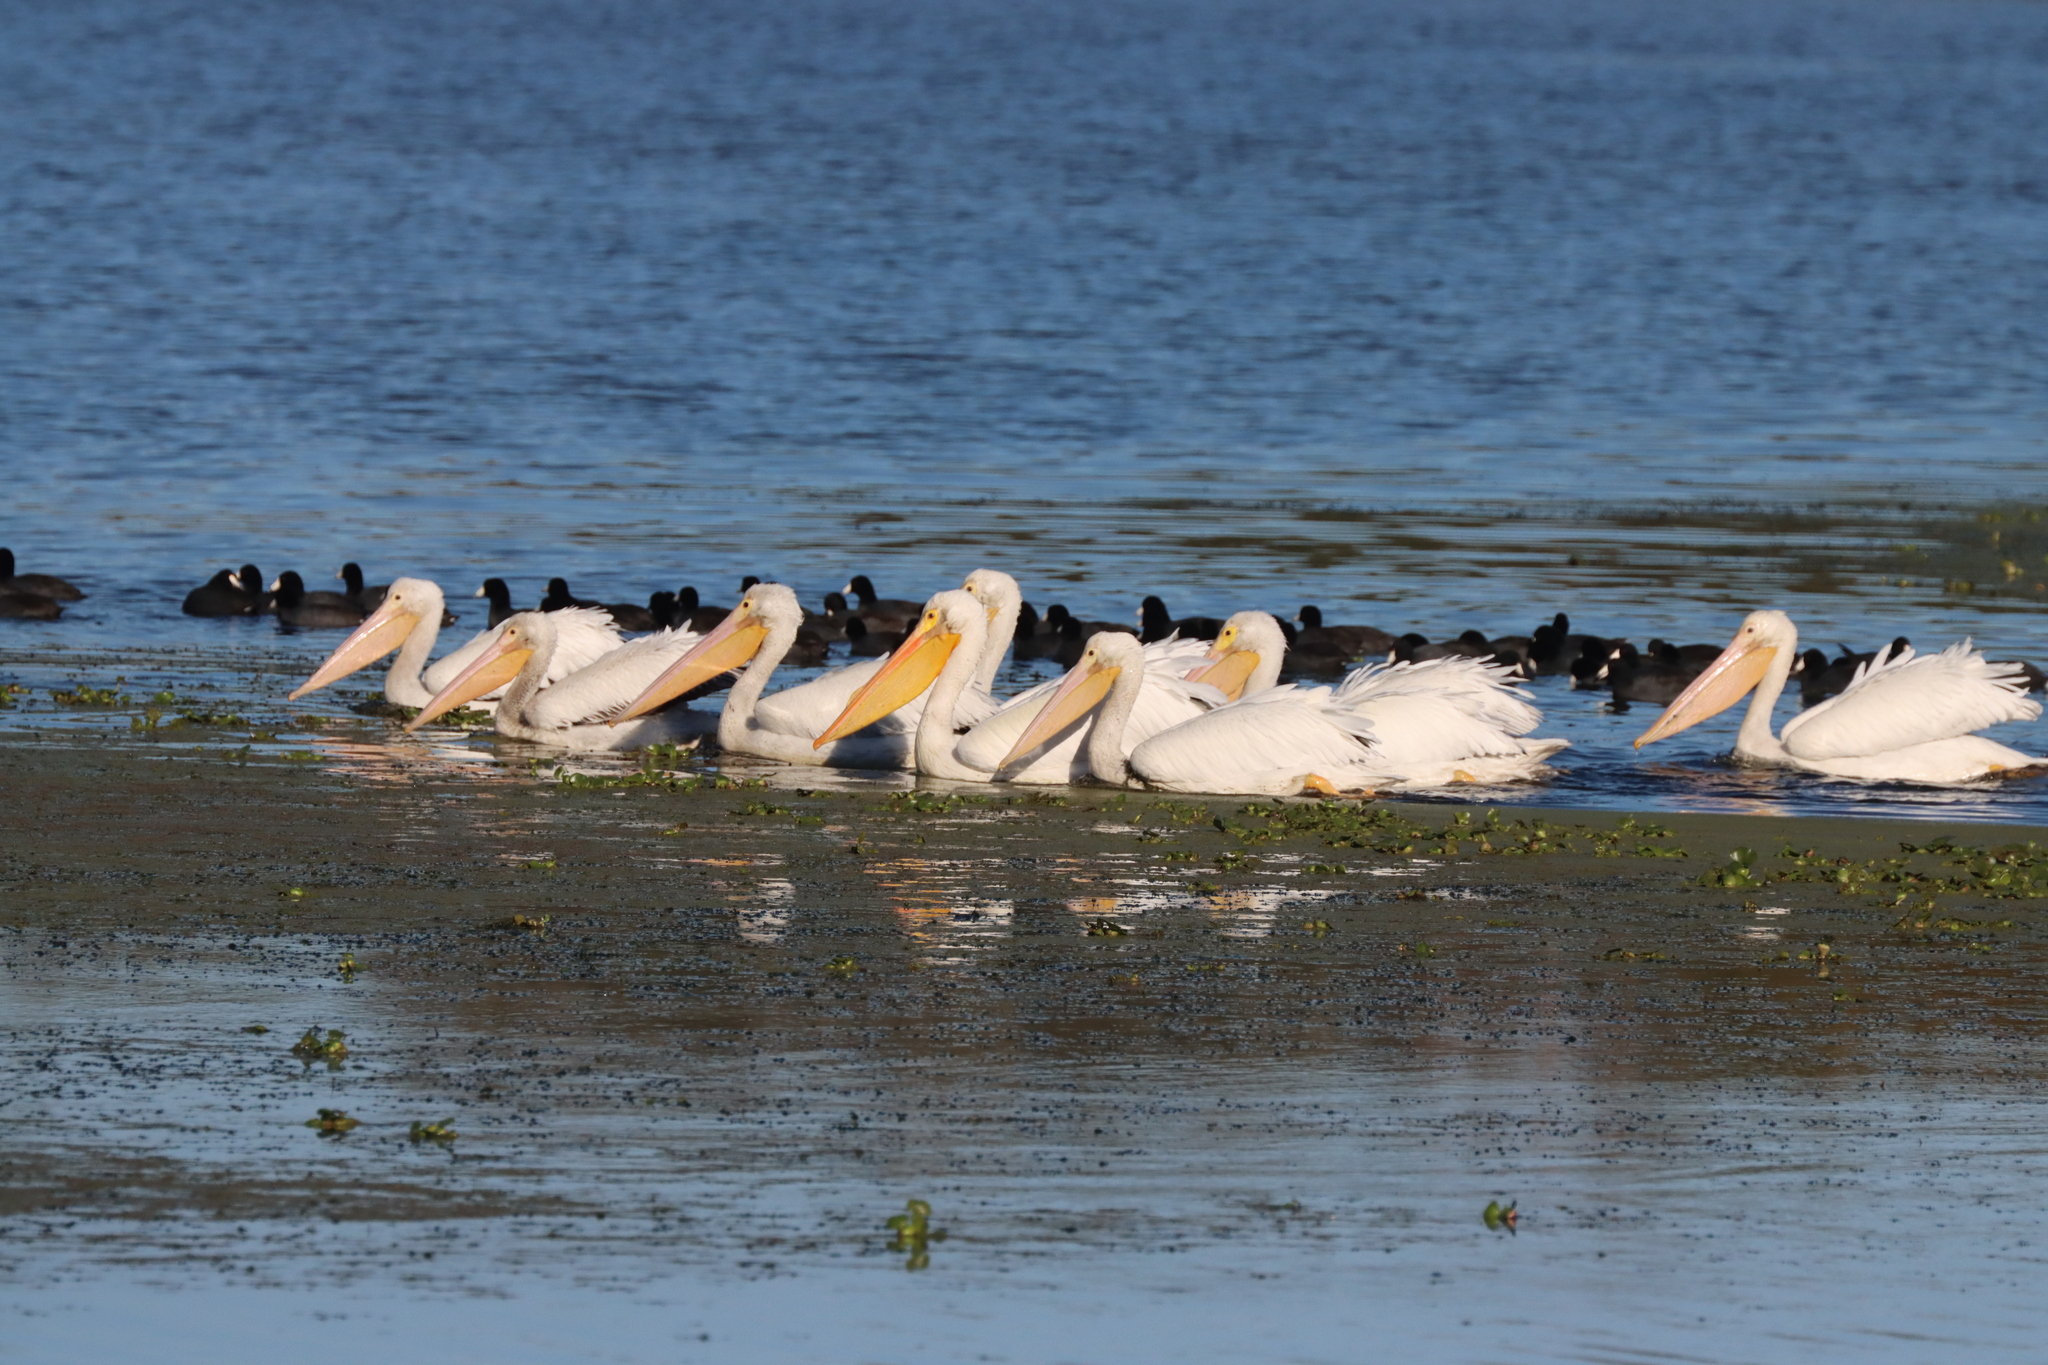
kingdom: Animalia
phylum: Chordata
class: Aves
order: Pelecaniformes
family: Pelecanidae
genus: Pelecanus
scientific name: Pelecanus erythrorhynchos
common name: American white pelican
